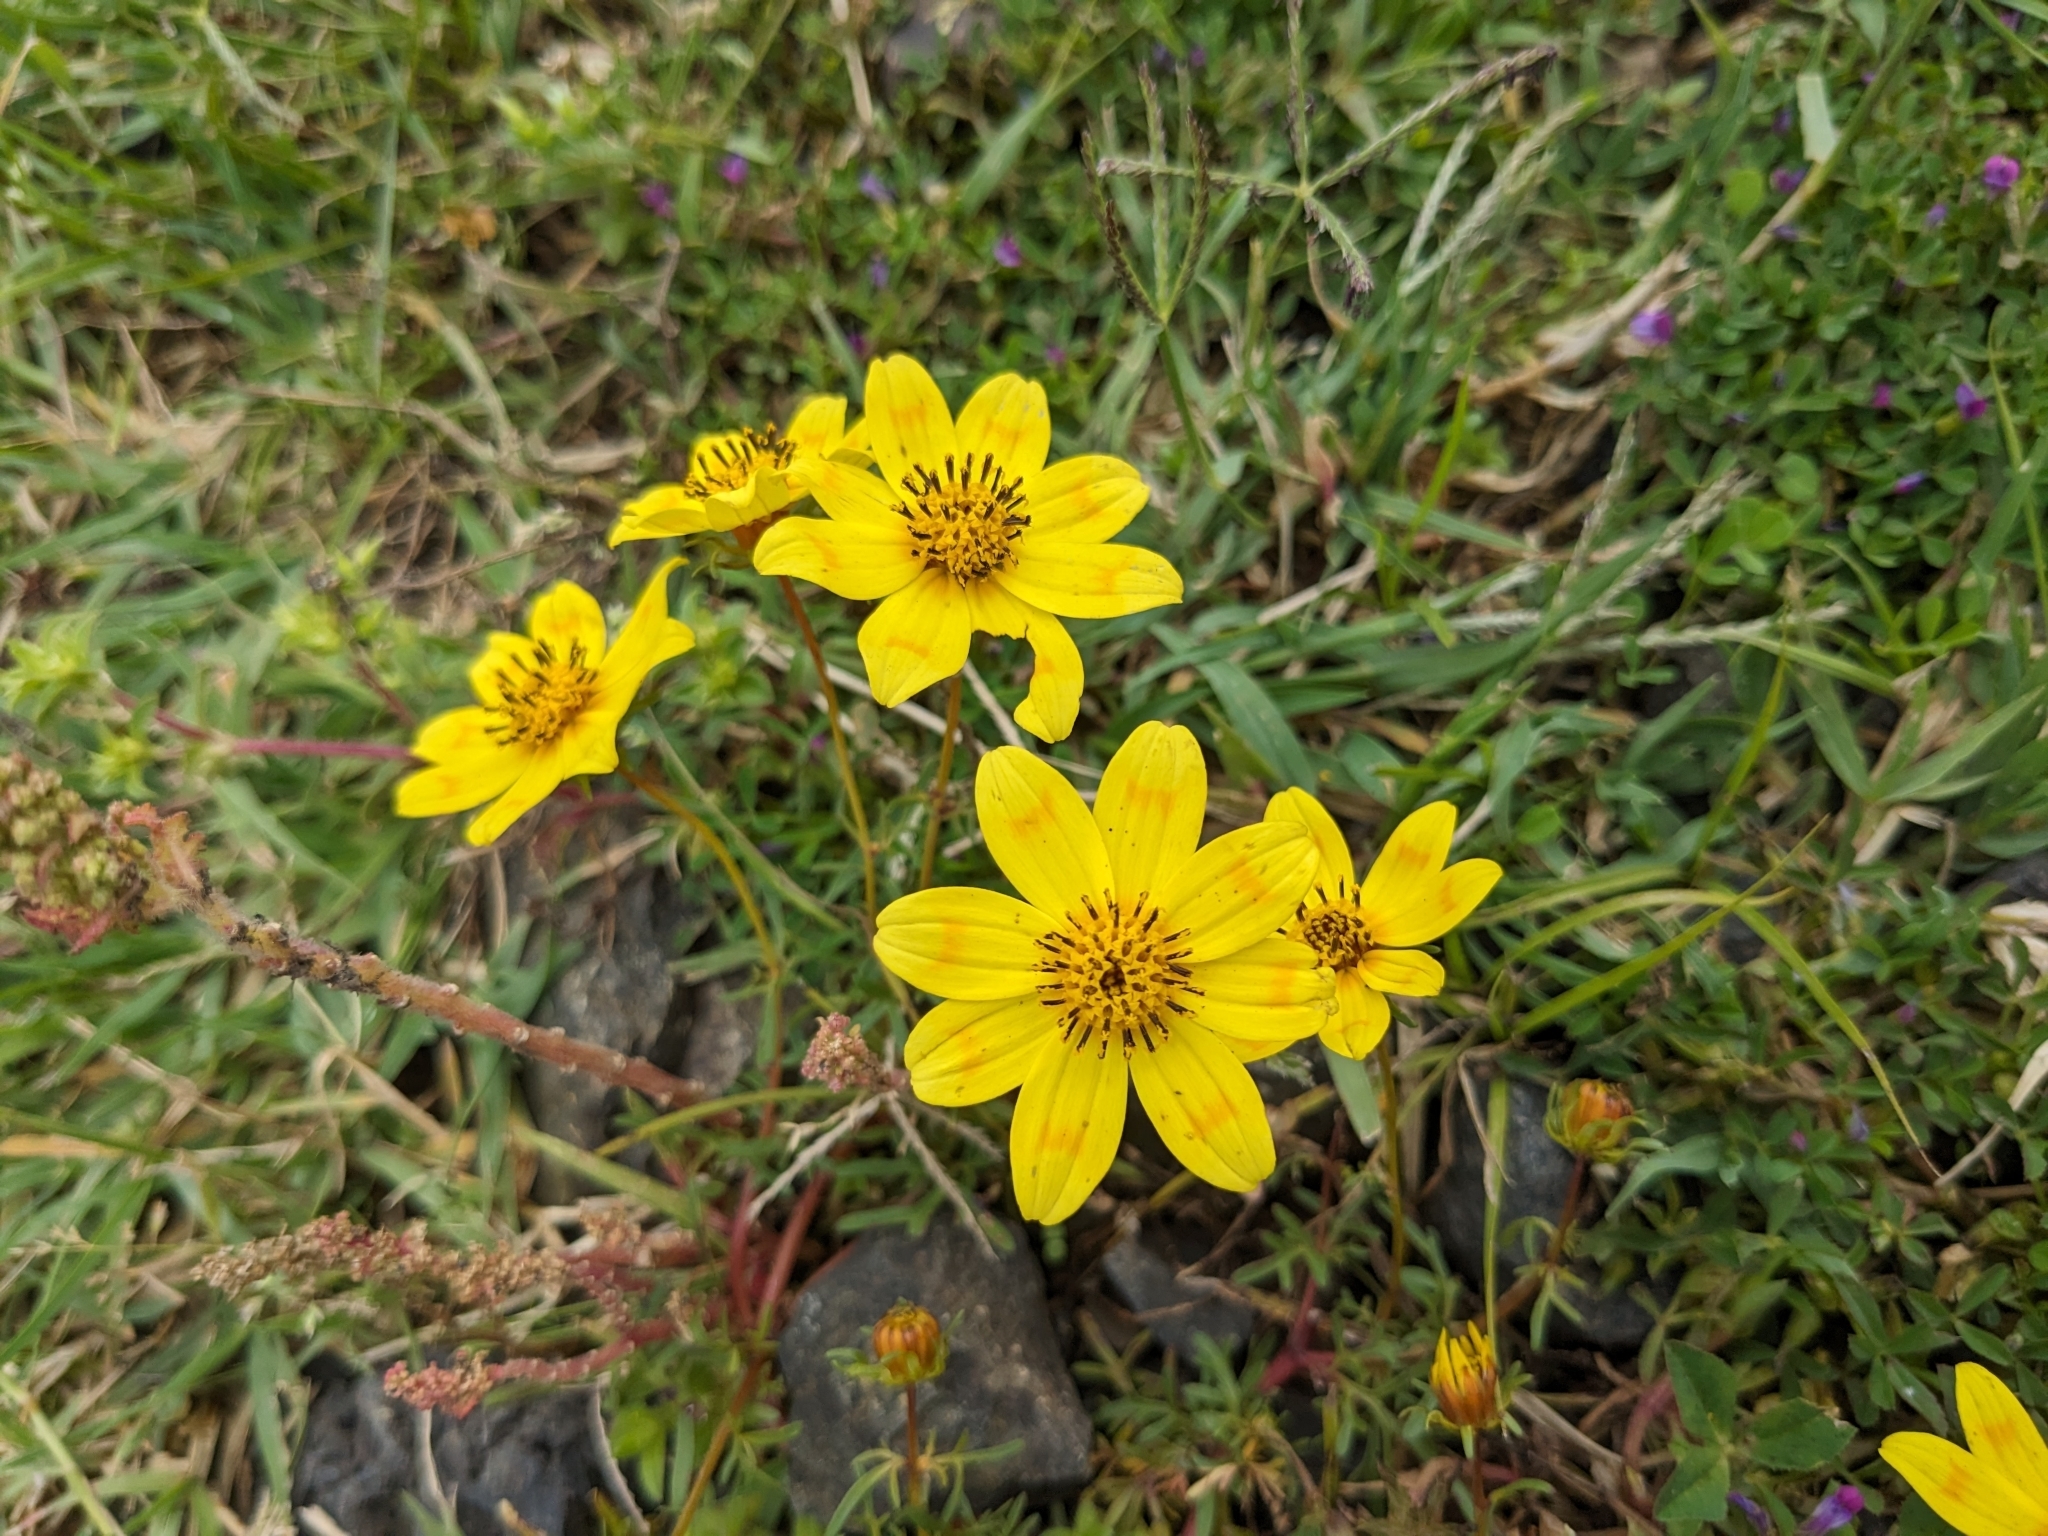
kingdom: Plantae
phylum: Tracheophyta
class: Magnoliopsida
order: Asterales
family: Asteraceae
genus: Bidens
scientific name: Bidens macroptera
